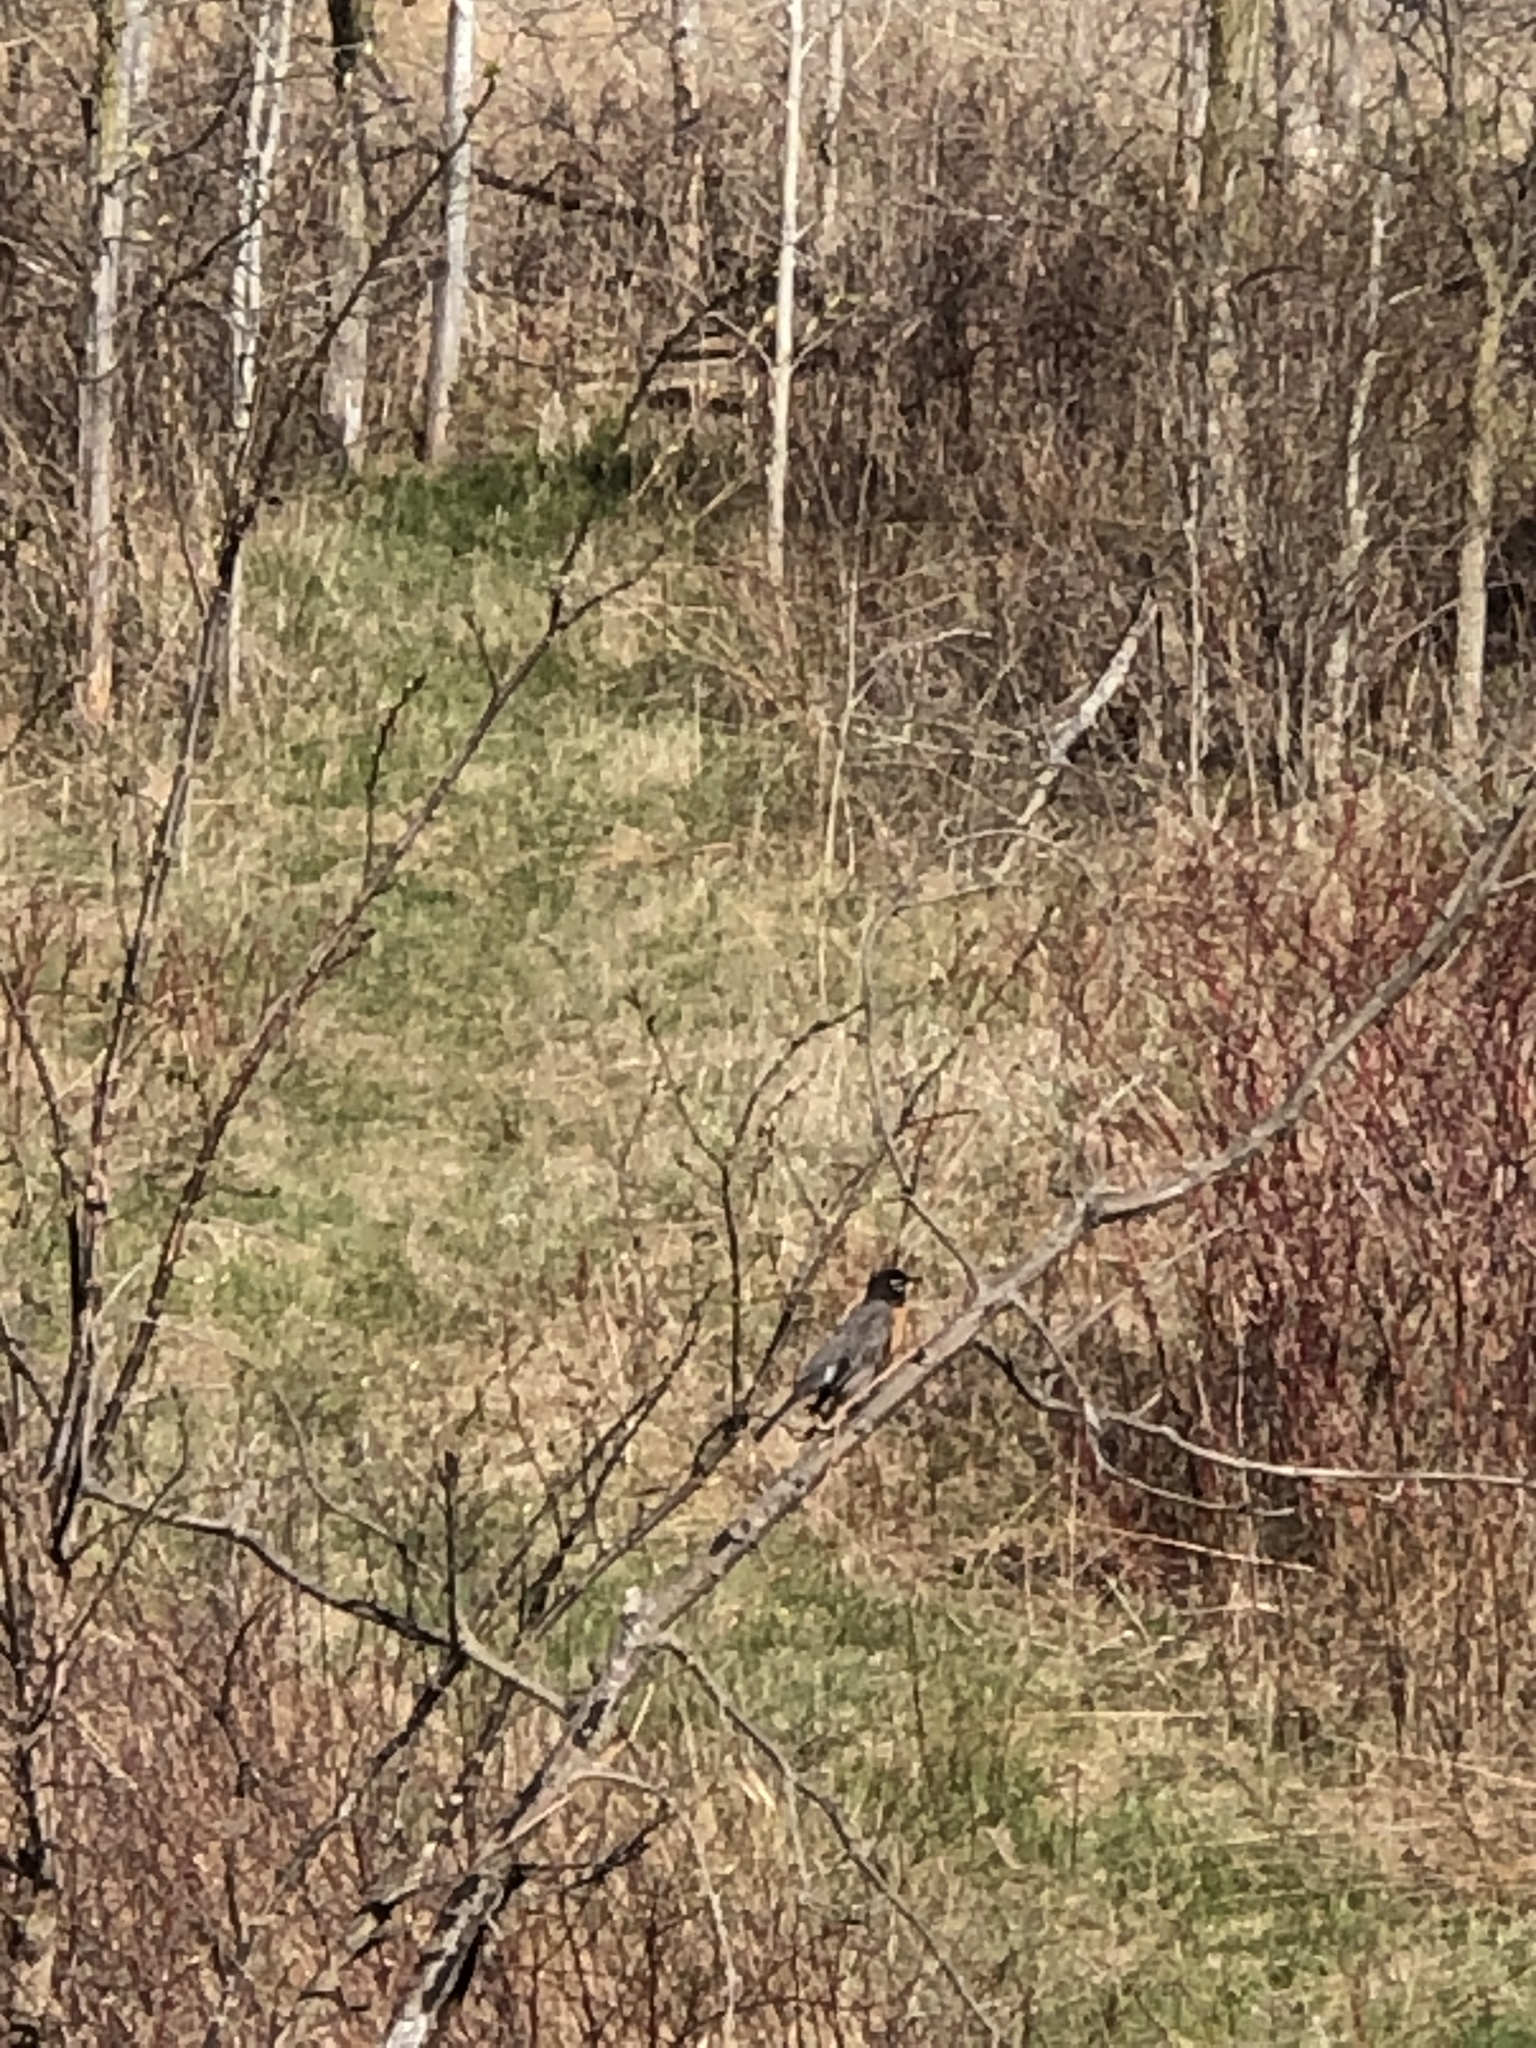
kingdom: Animalia
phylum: Chordata
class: Aves
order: Passeriformes
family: Turdidae
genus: Turdus
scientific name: Turdus migratorius
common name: American robin
